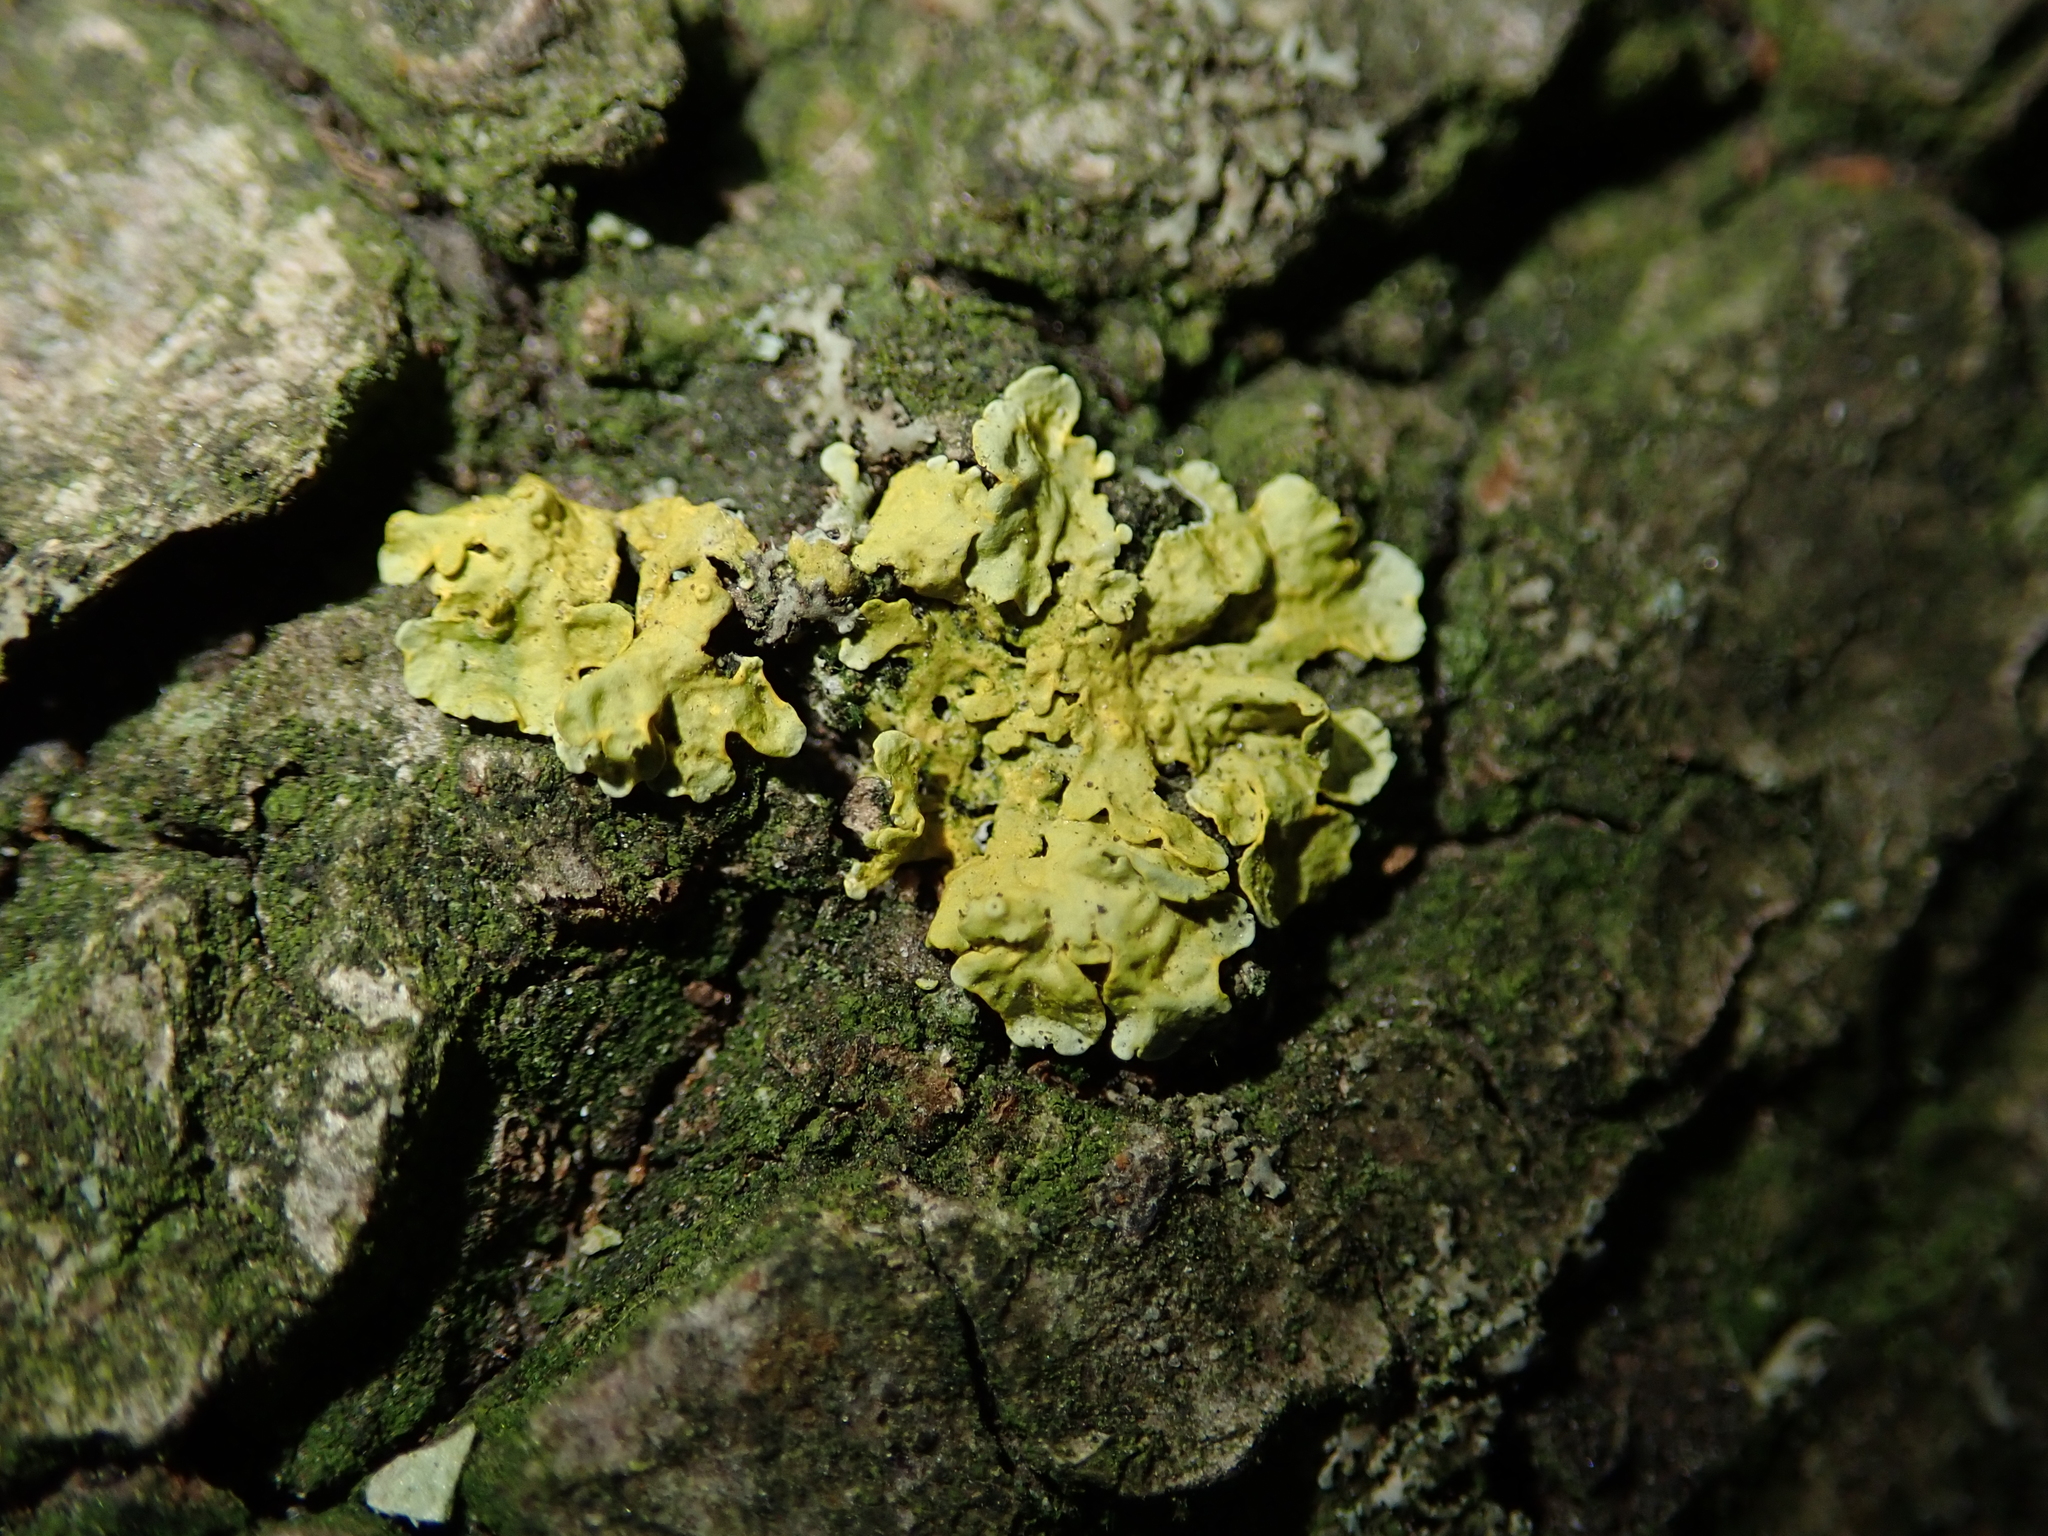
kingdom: Fungi
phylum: Ascomycota
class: Lecanoromycetes
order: Teloschistales
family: Teloschistaceae
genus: Xanthoria
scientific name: Xanthoria parietina
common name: Common orange lichen
